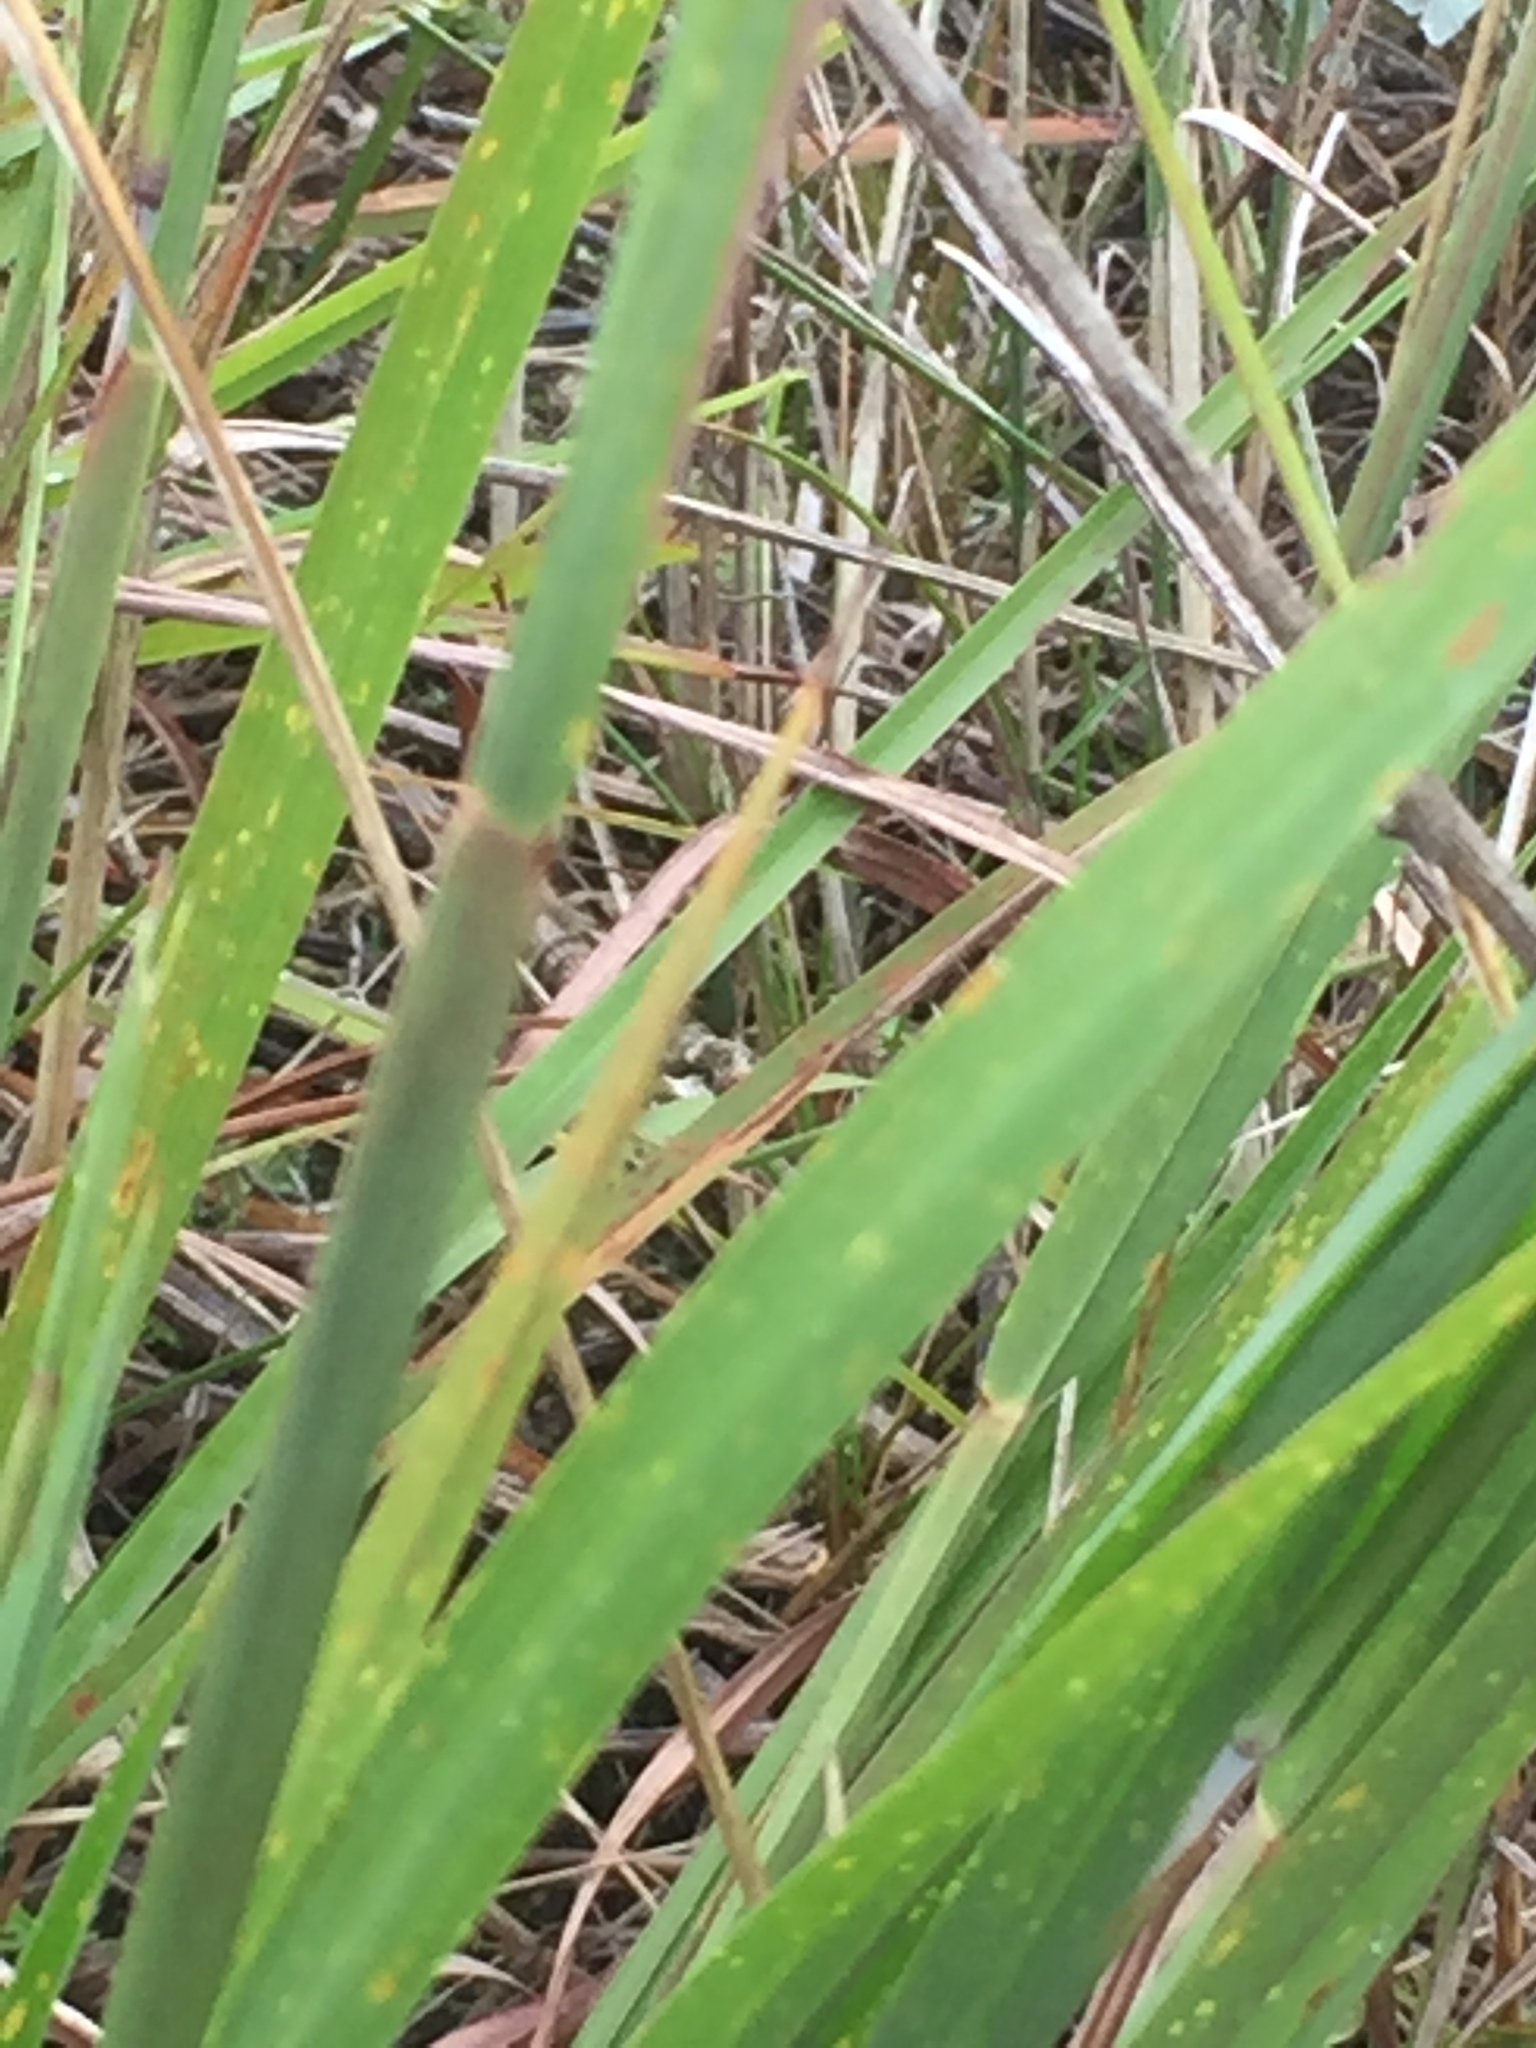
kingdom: Plantae
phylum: Tracheophyta
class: Liliopsida
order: Poales
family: Poaceae
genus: Schizachyrium
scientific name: Schizachyrium scoparium
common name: Little bluestem
